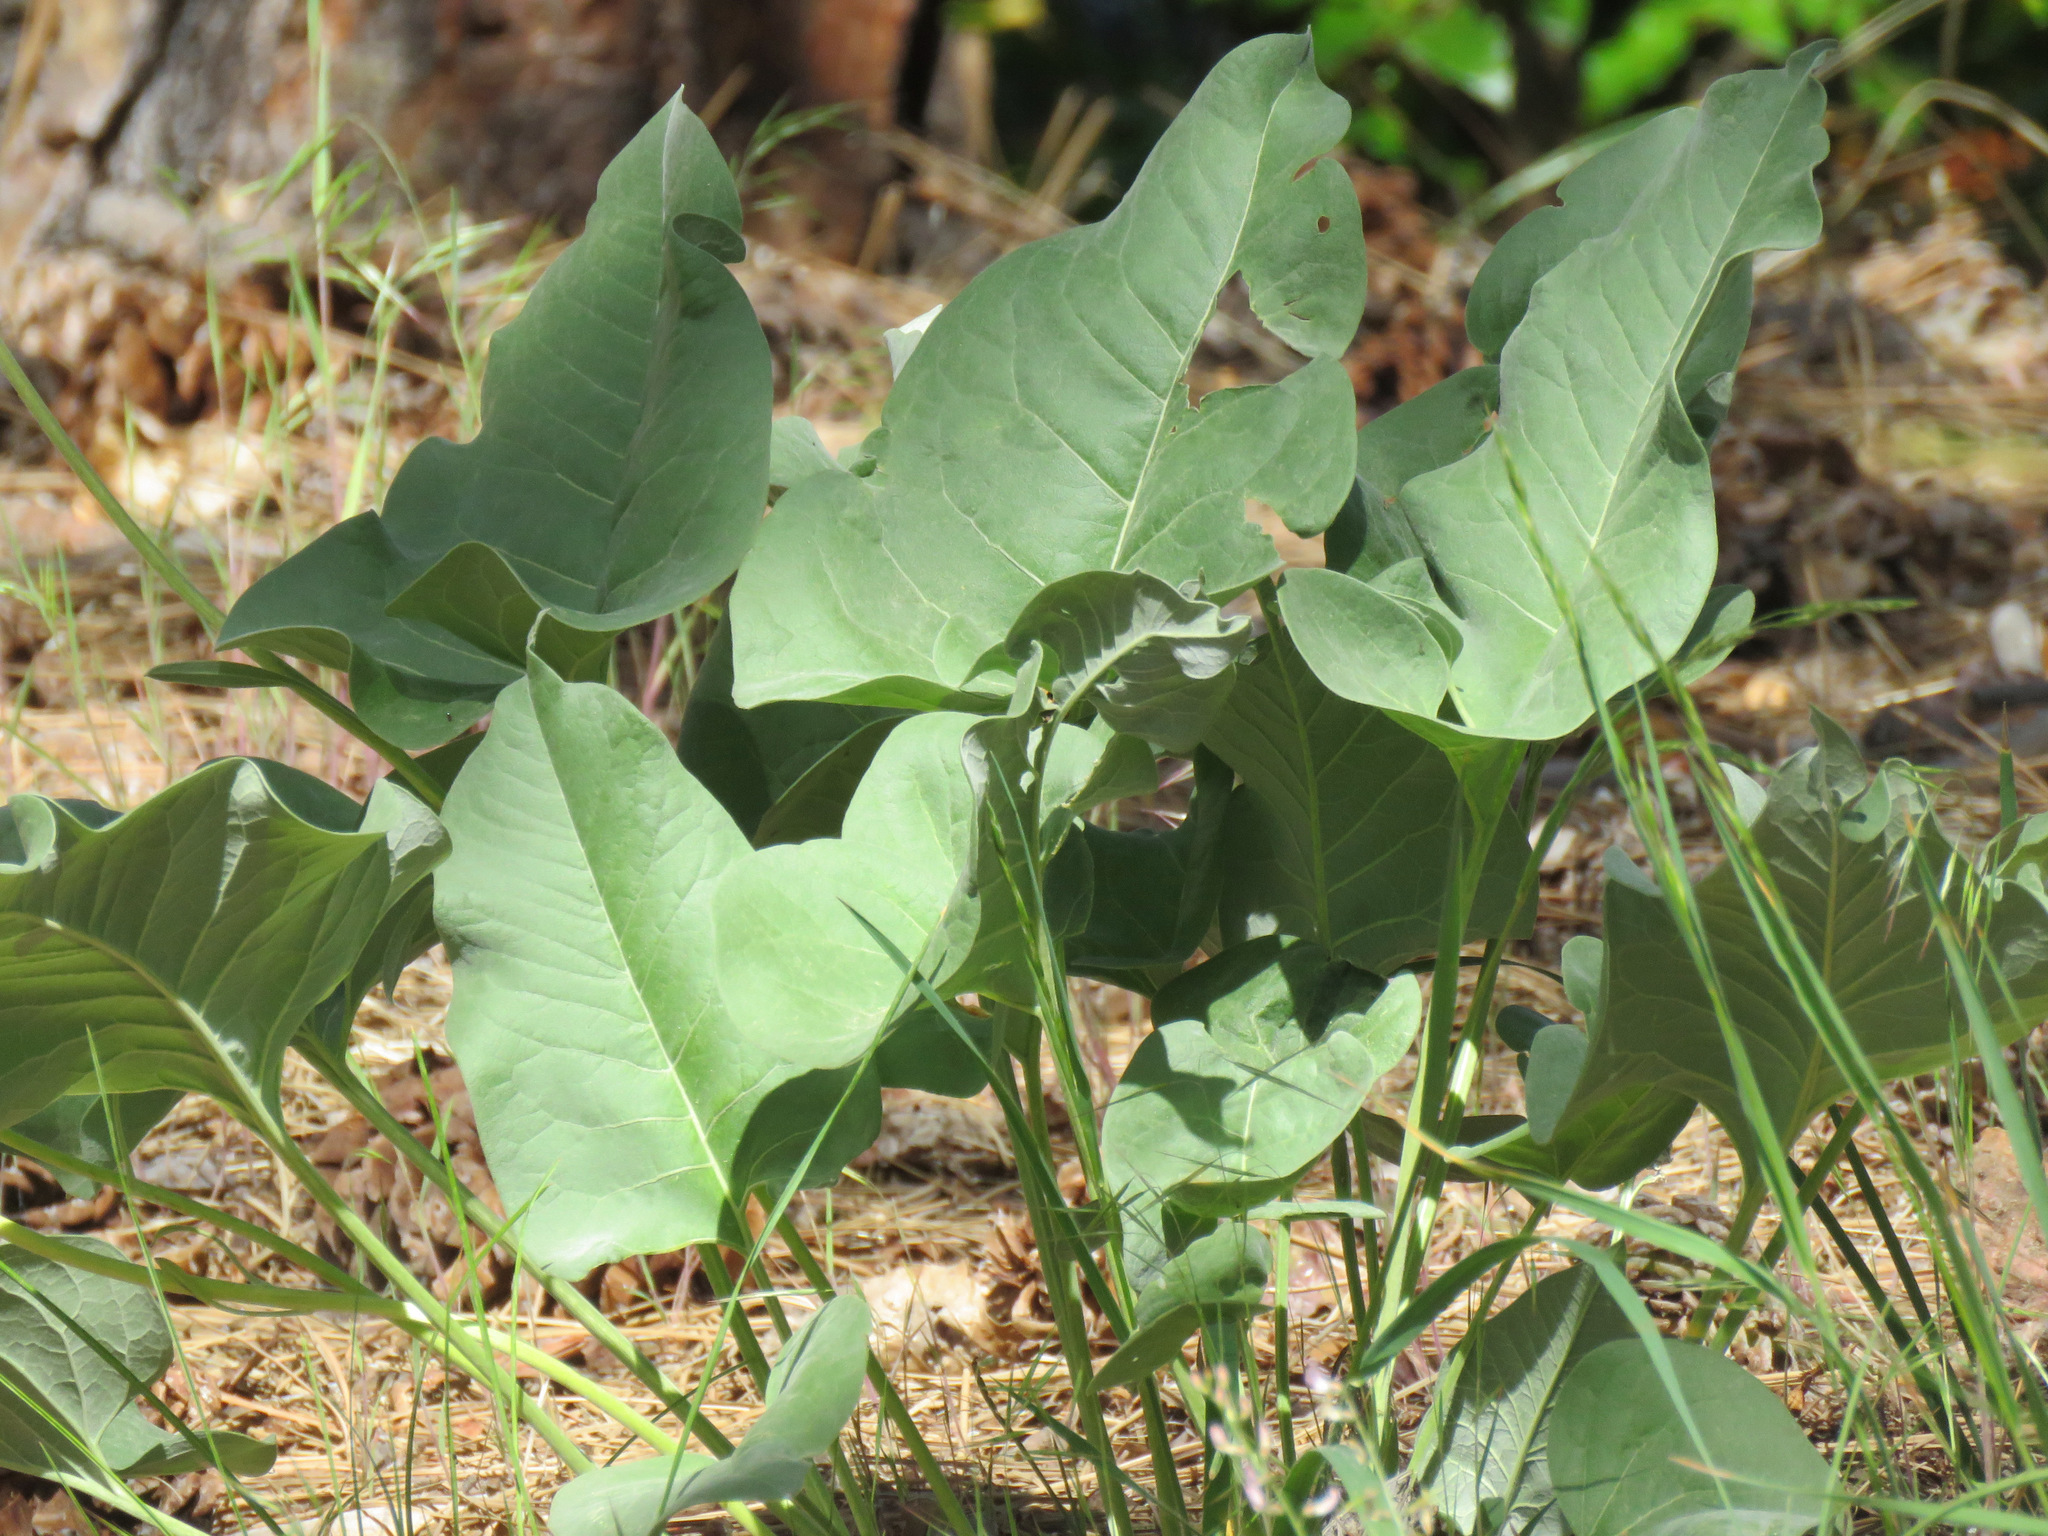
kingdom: Plantae
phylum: Tracheophyta
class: Magnoliopsida
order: Asterales
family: Asteraceae
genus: Wyethia
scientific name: Wyethia sagittata
